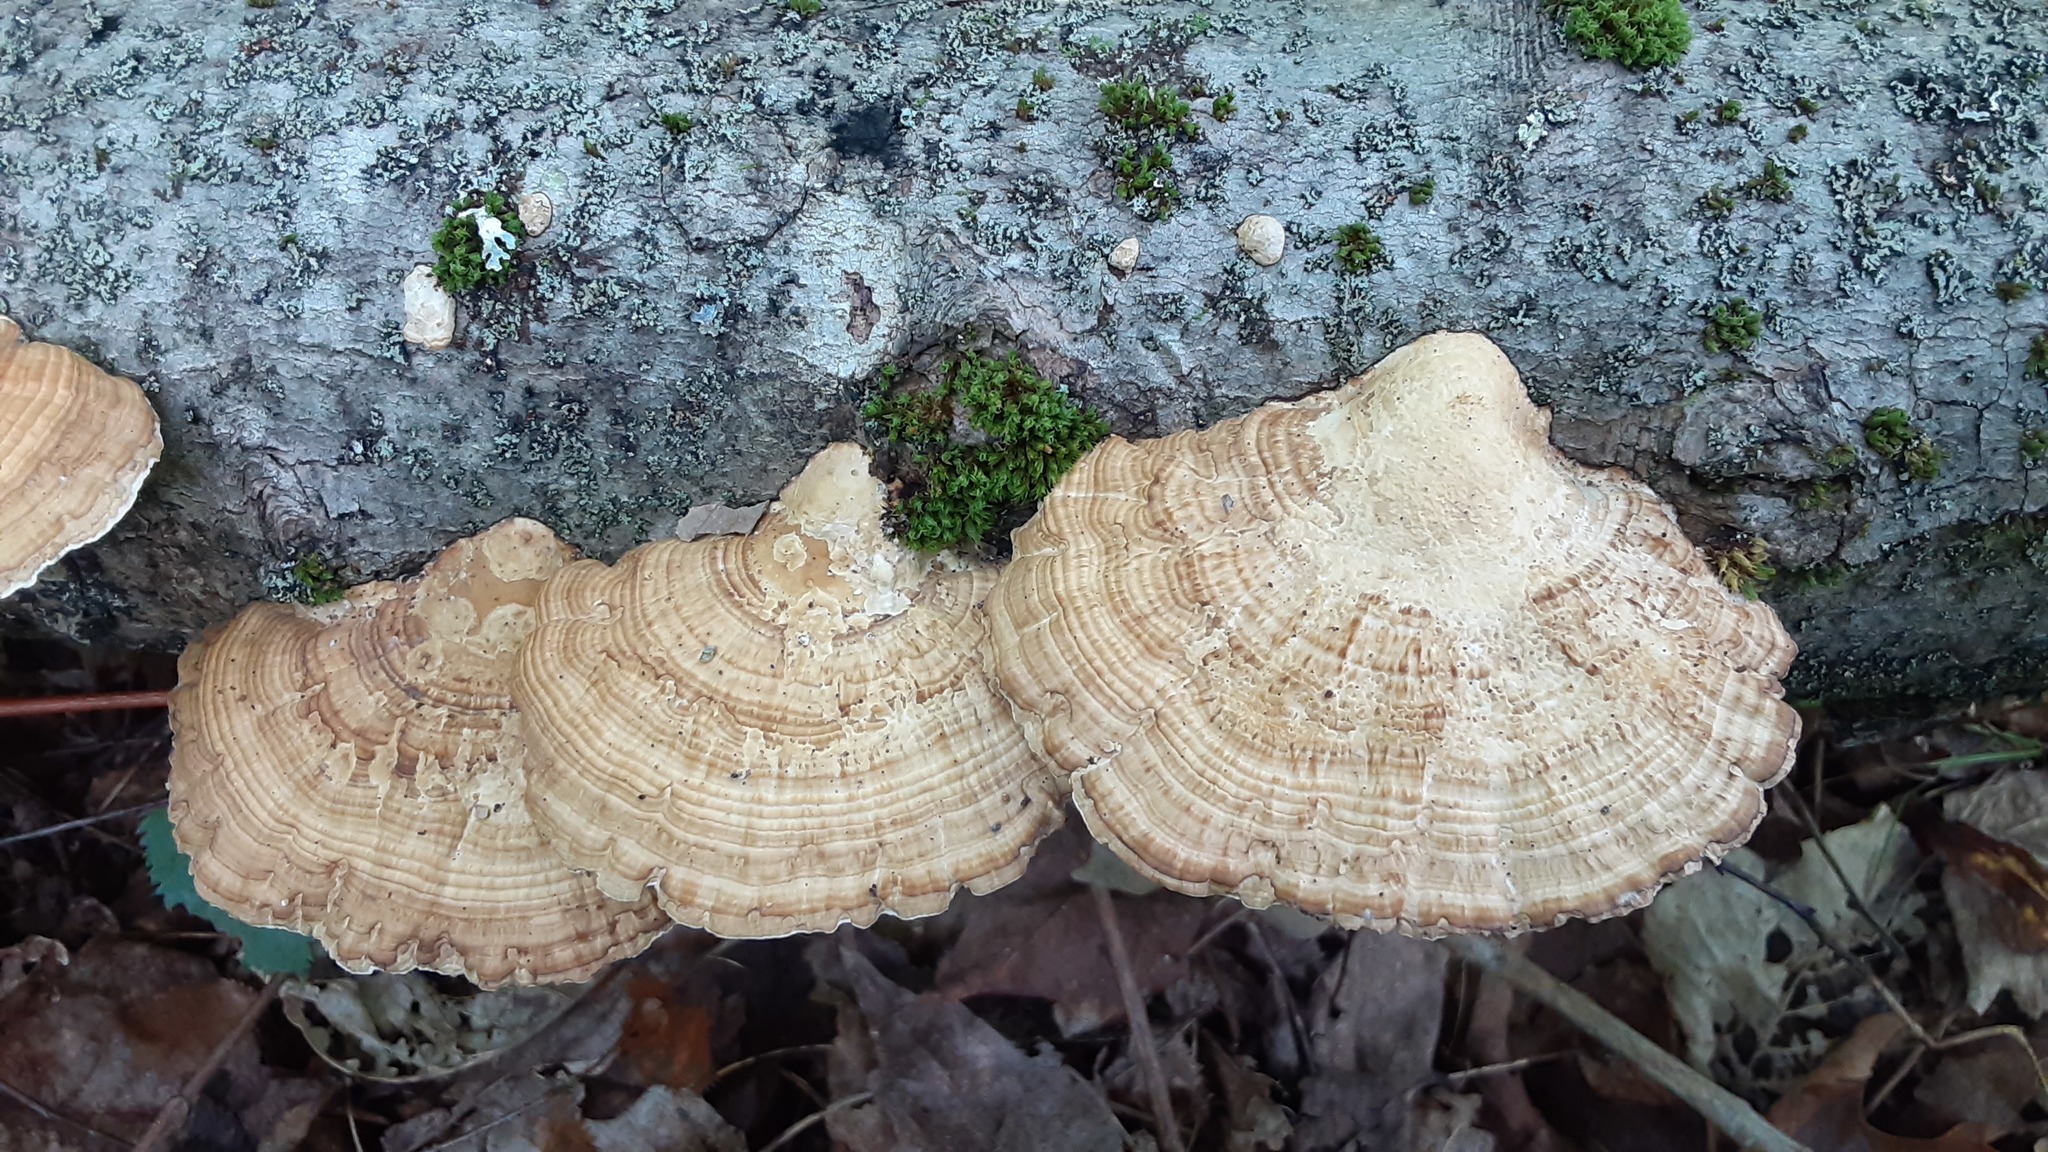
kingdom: Fungi
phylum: Basidiomycota
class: Agaricomycetes
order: Polyporales
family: Polyporaceae
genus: Daedaleopsis
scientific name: Daedaleopsis confragosa
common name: Blushing bracket
